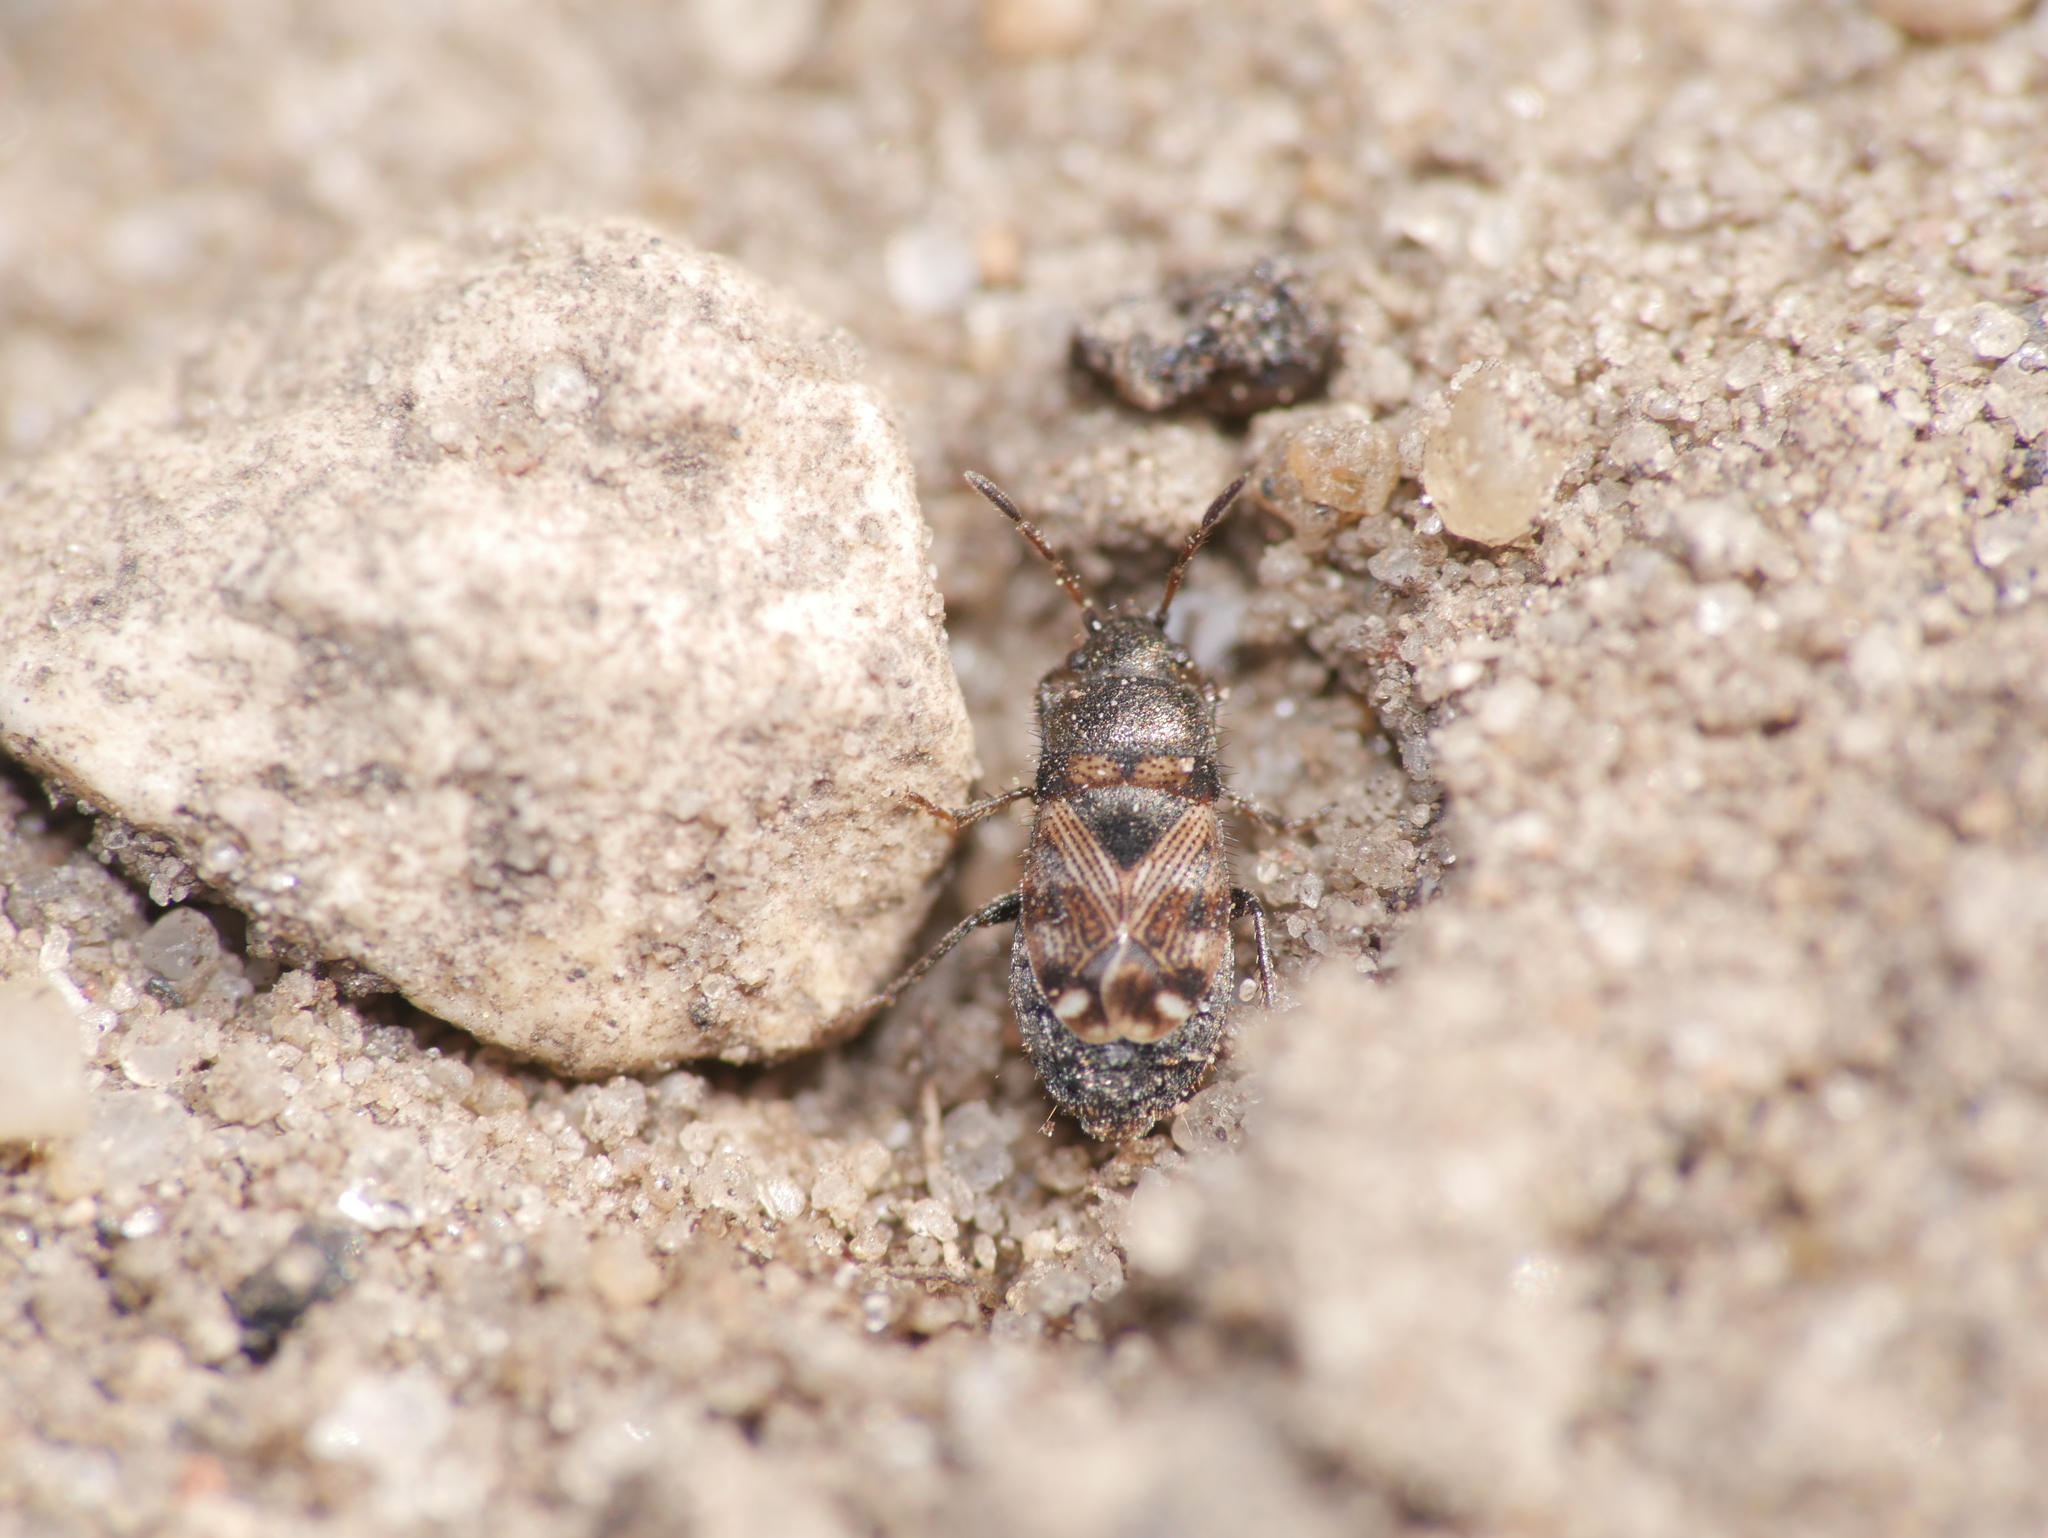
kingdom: Animalia
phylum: Arthropoda
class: Insecta
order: Hemiptera
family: Rhyparochromidae
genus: Pionosomus
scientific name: Pionosomus varius
